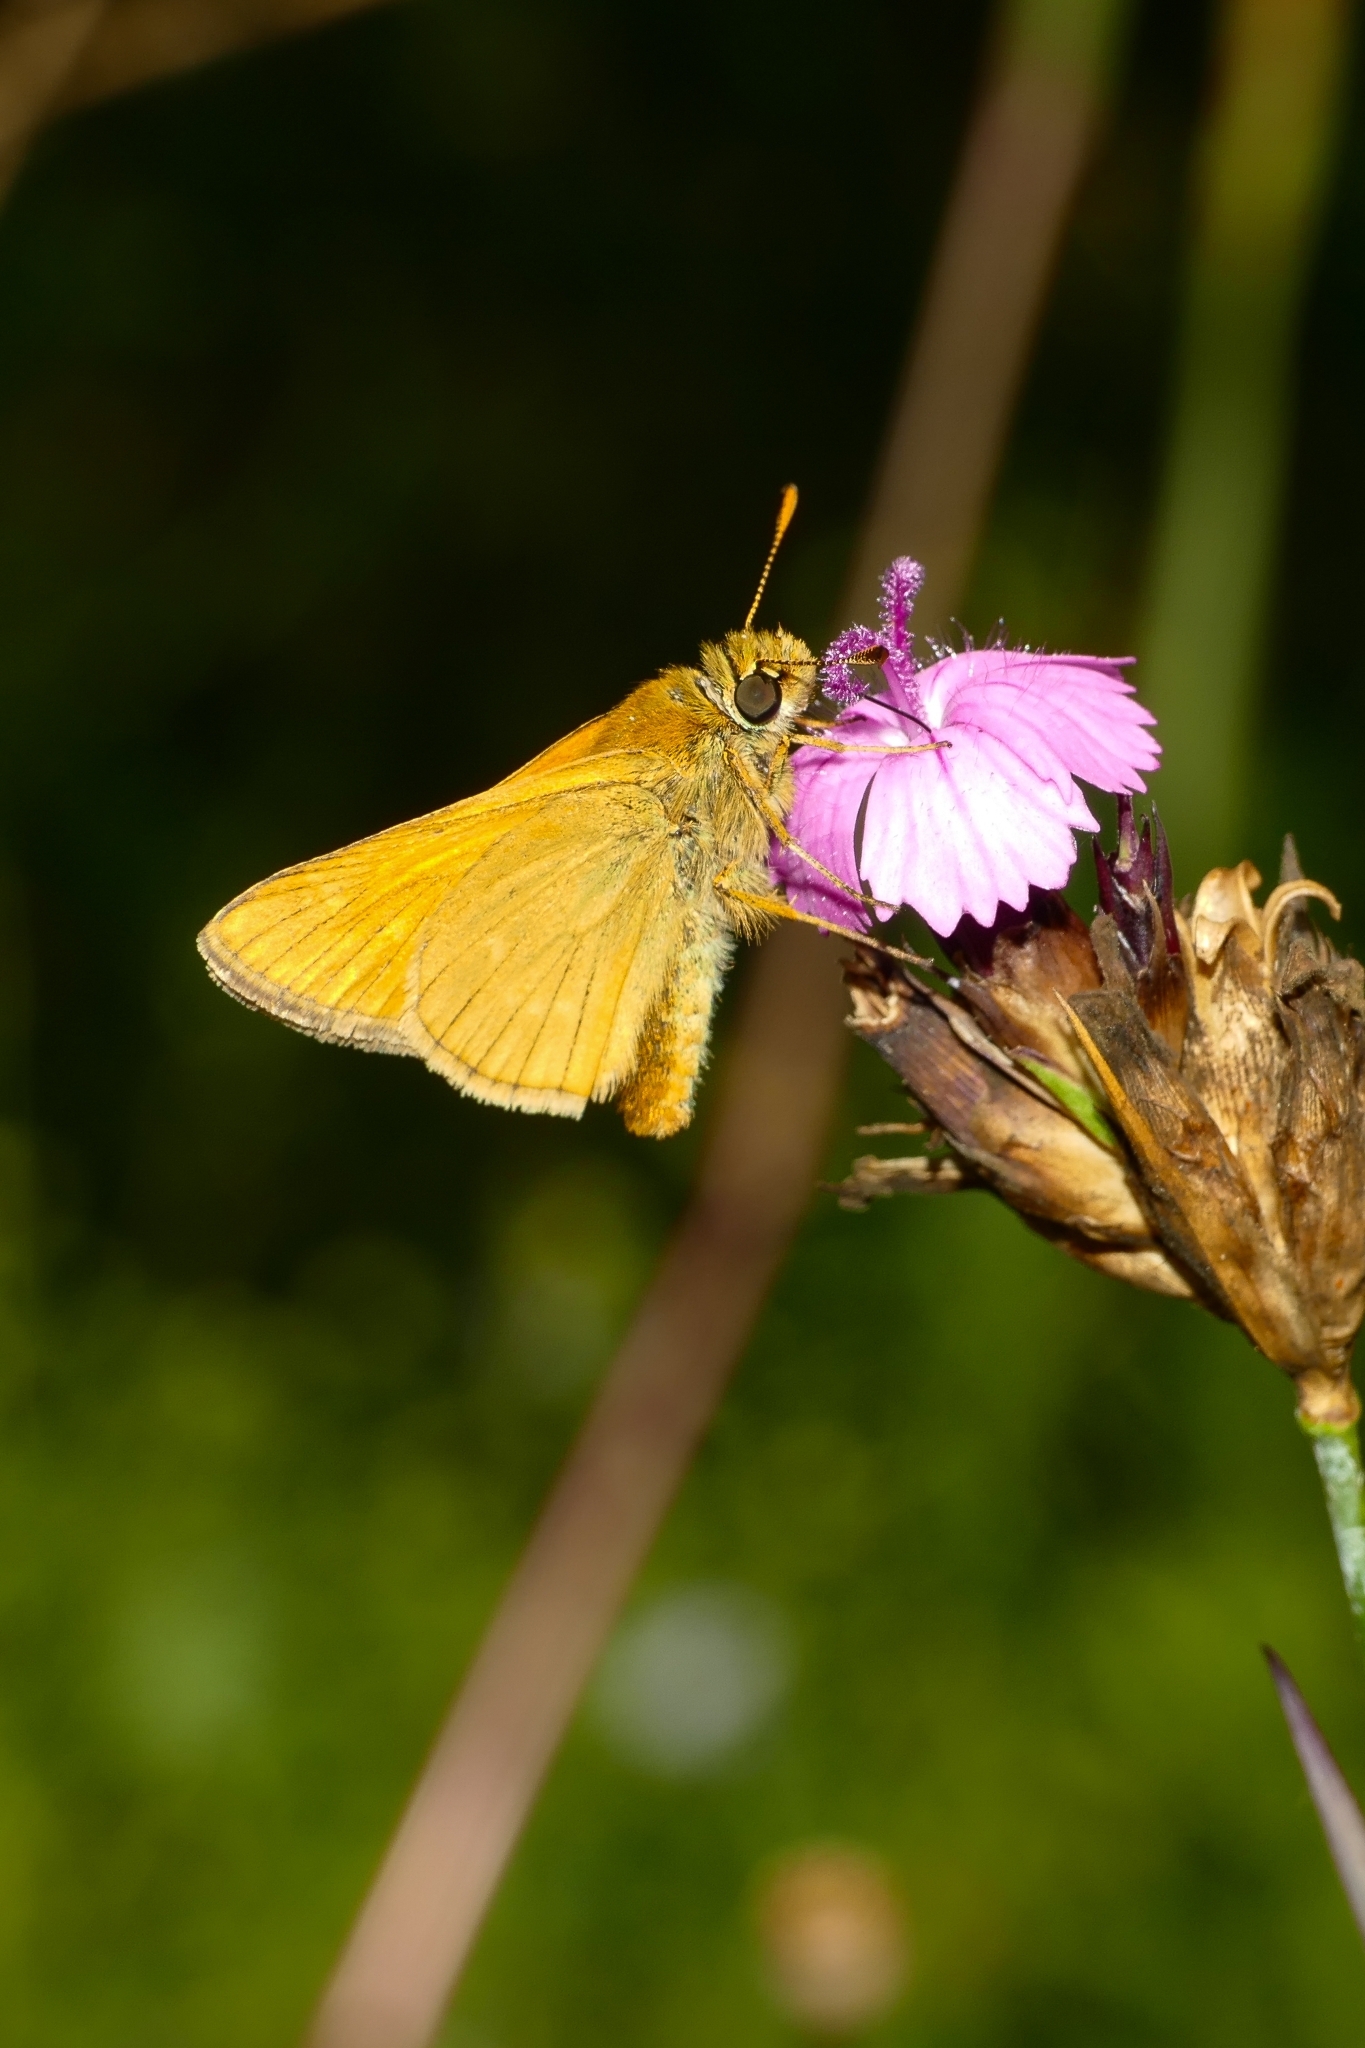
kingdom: Animalia
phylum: Arthropoda
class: Insecta
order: Lepidoptera
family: Hesperiidae
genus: Ochlodes
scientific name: Ochlodes venata
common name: Large skipper
